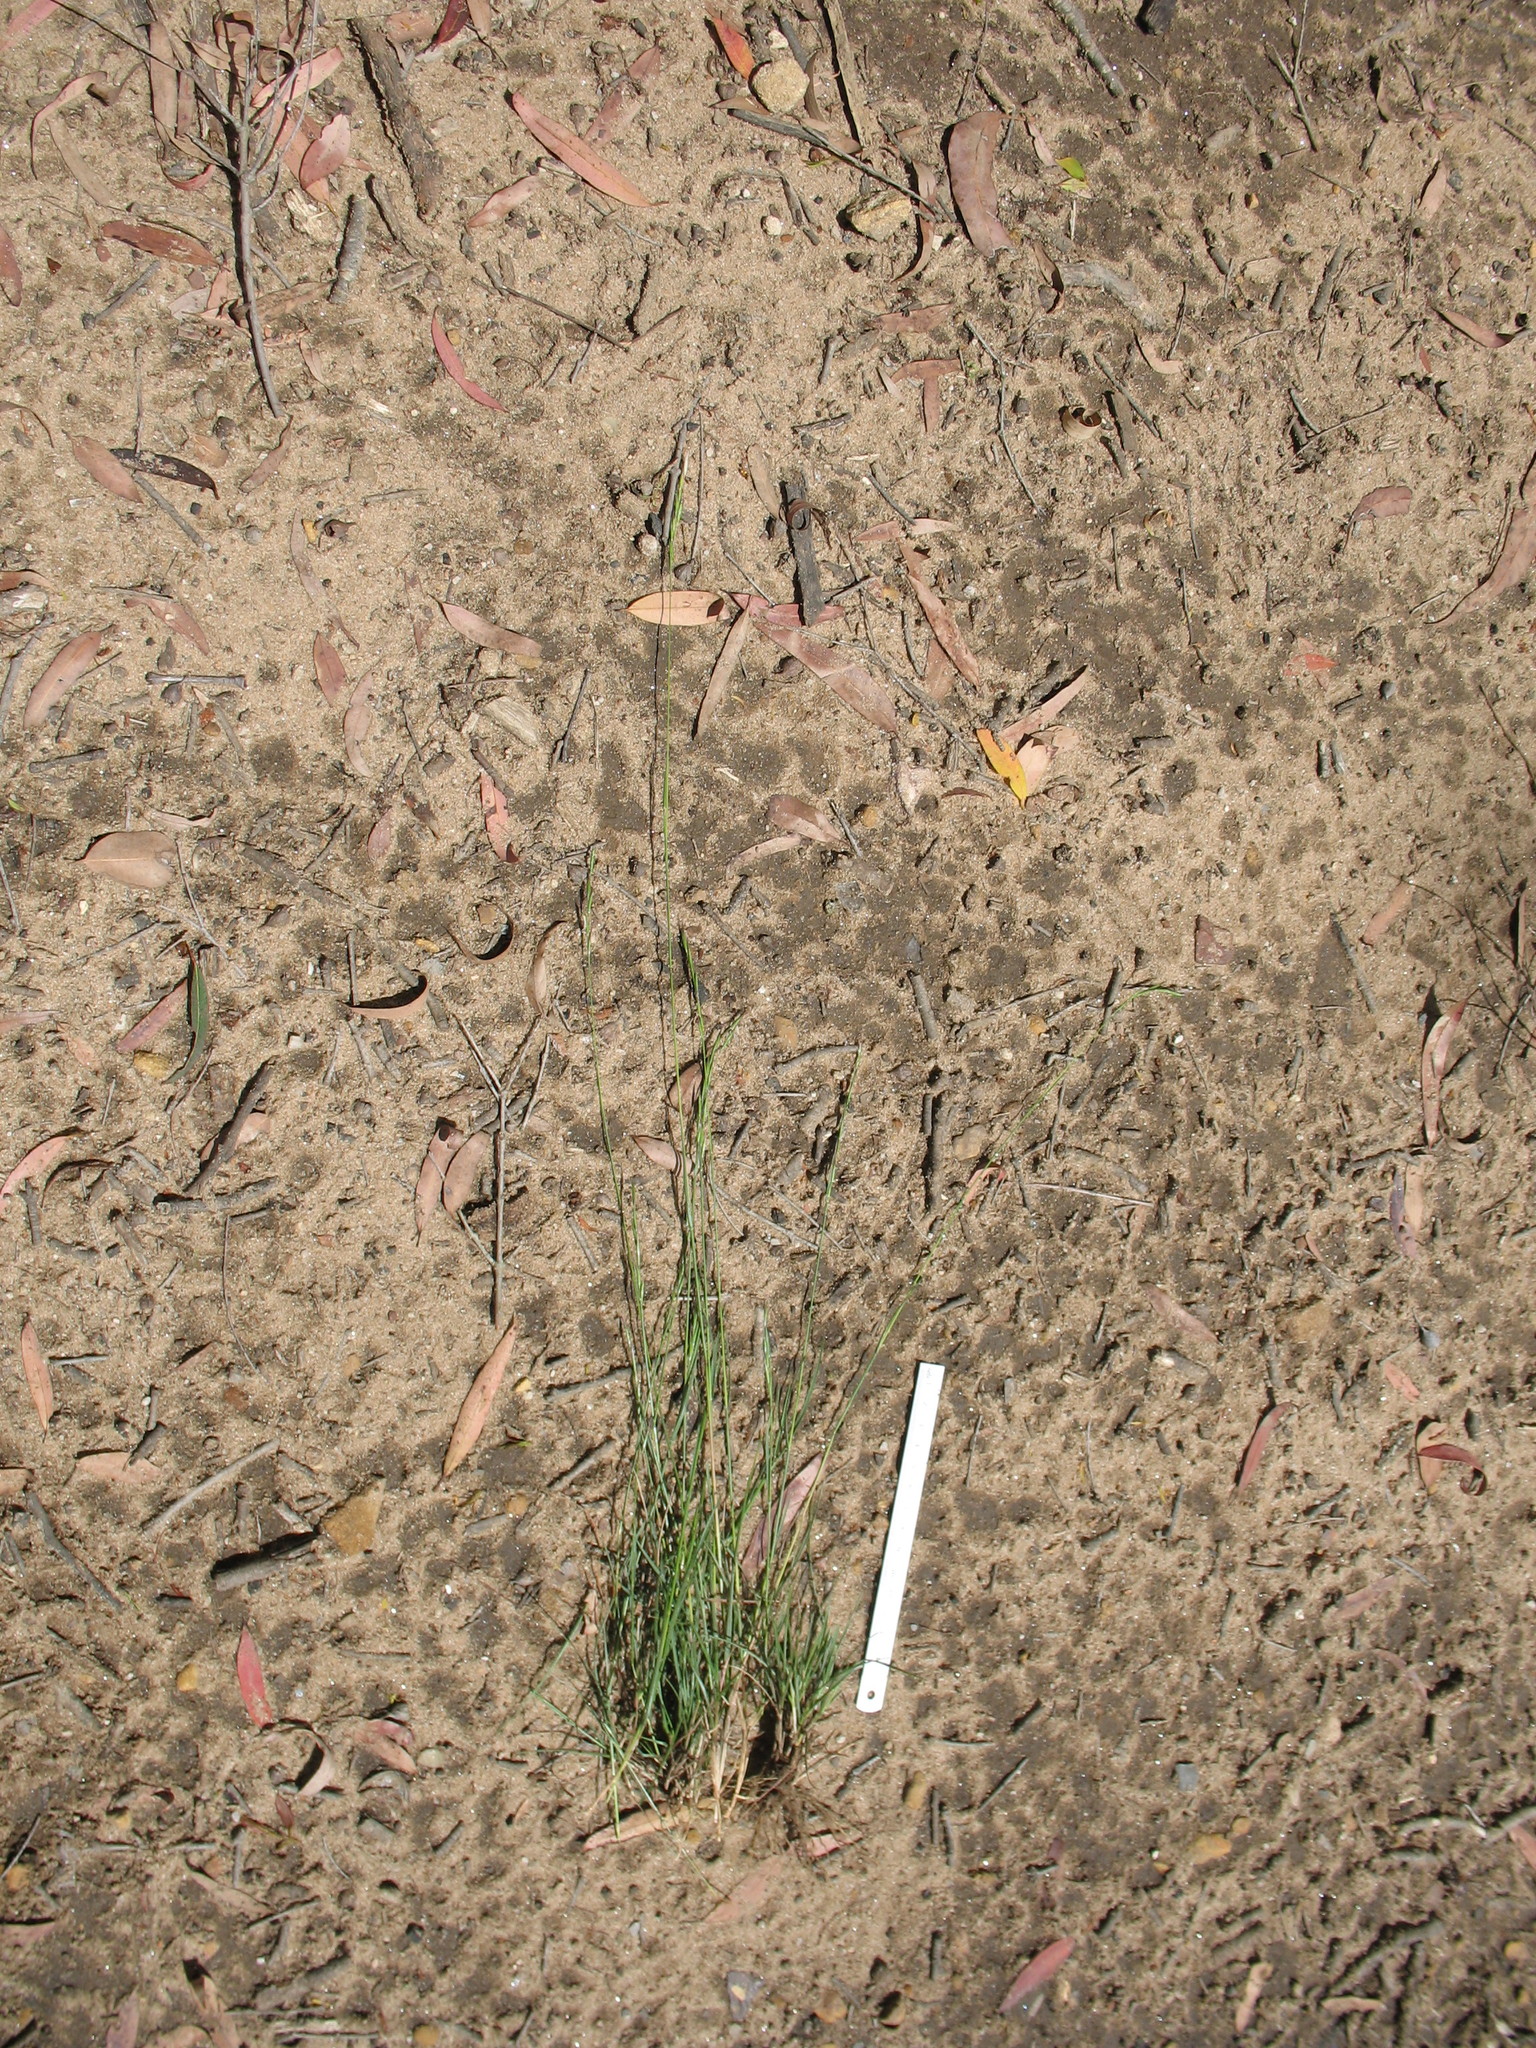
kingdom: Plantae
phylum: Tracheophyta
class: Liliopsida
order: Poales
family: Poaceae
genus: Rytidosperma
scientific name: Rytidosperma penicillatum
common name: Hairy wallaby grass
